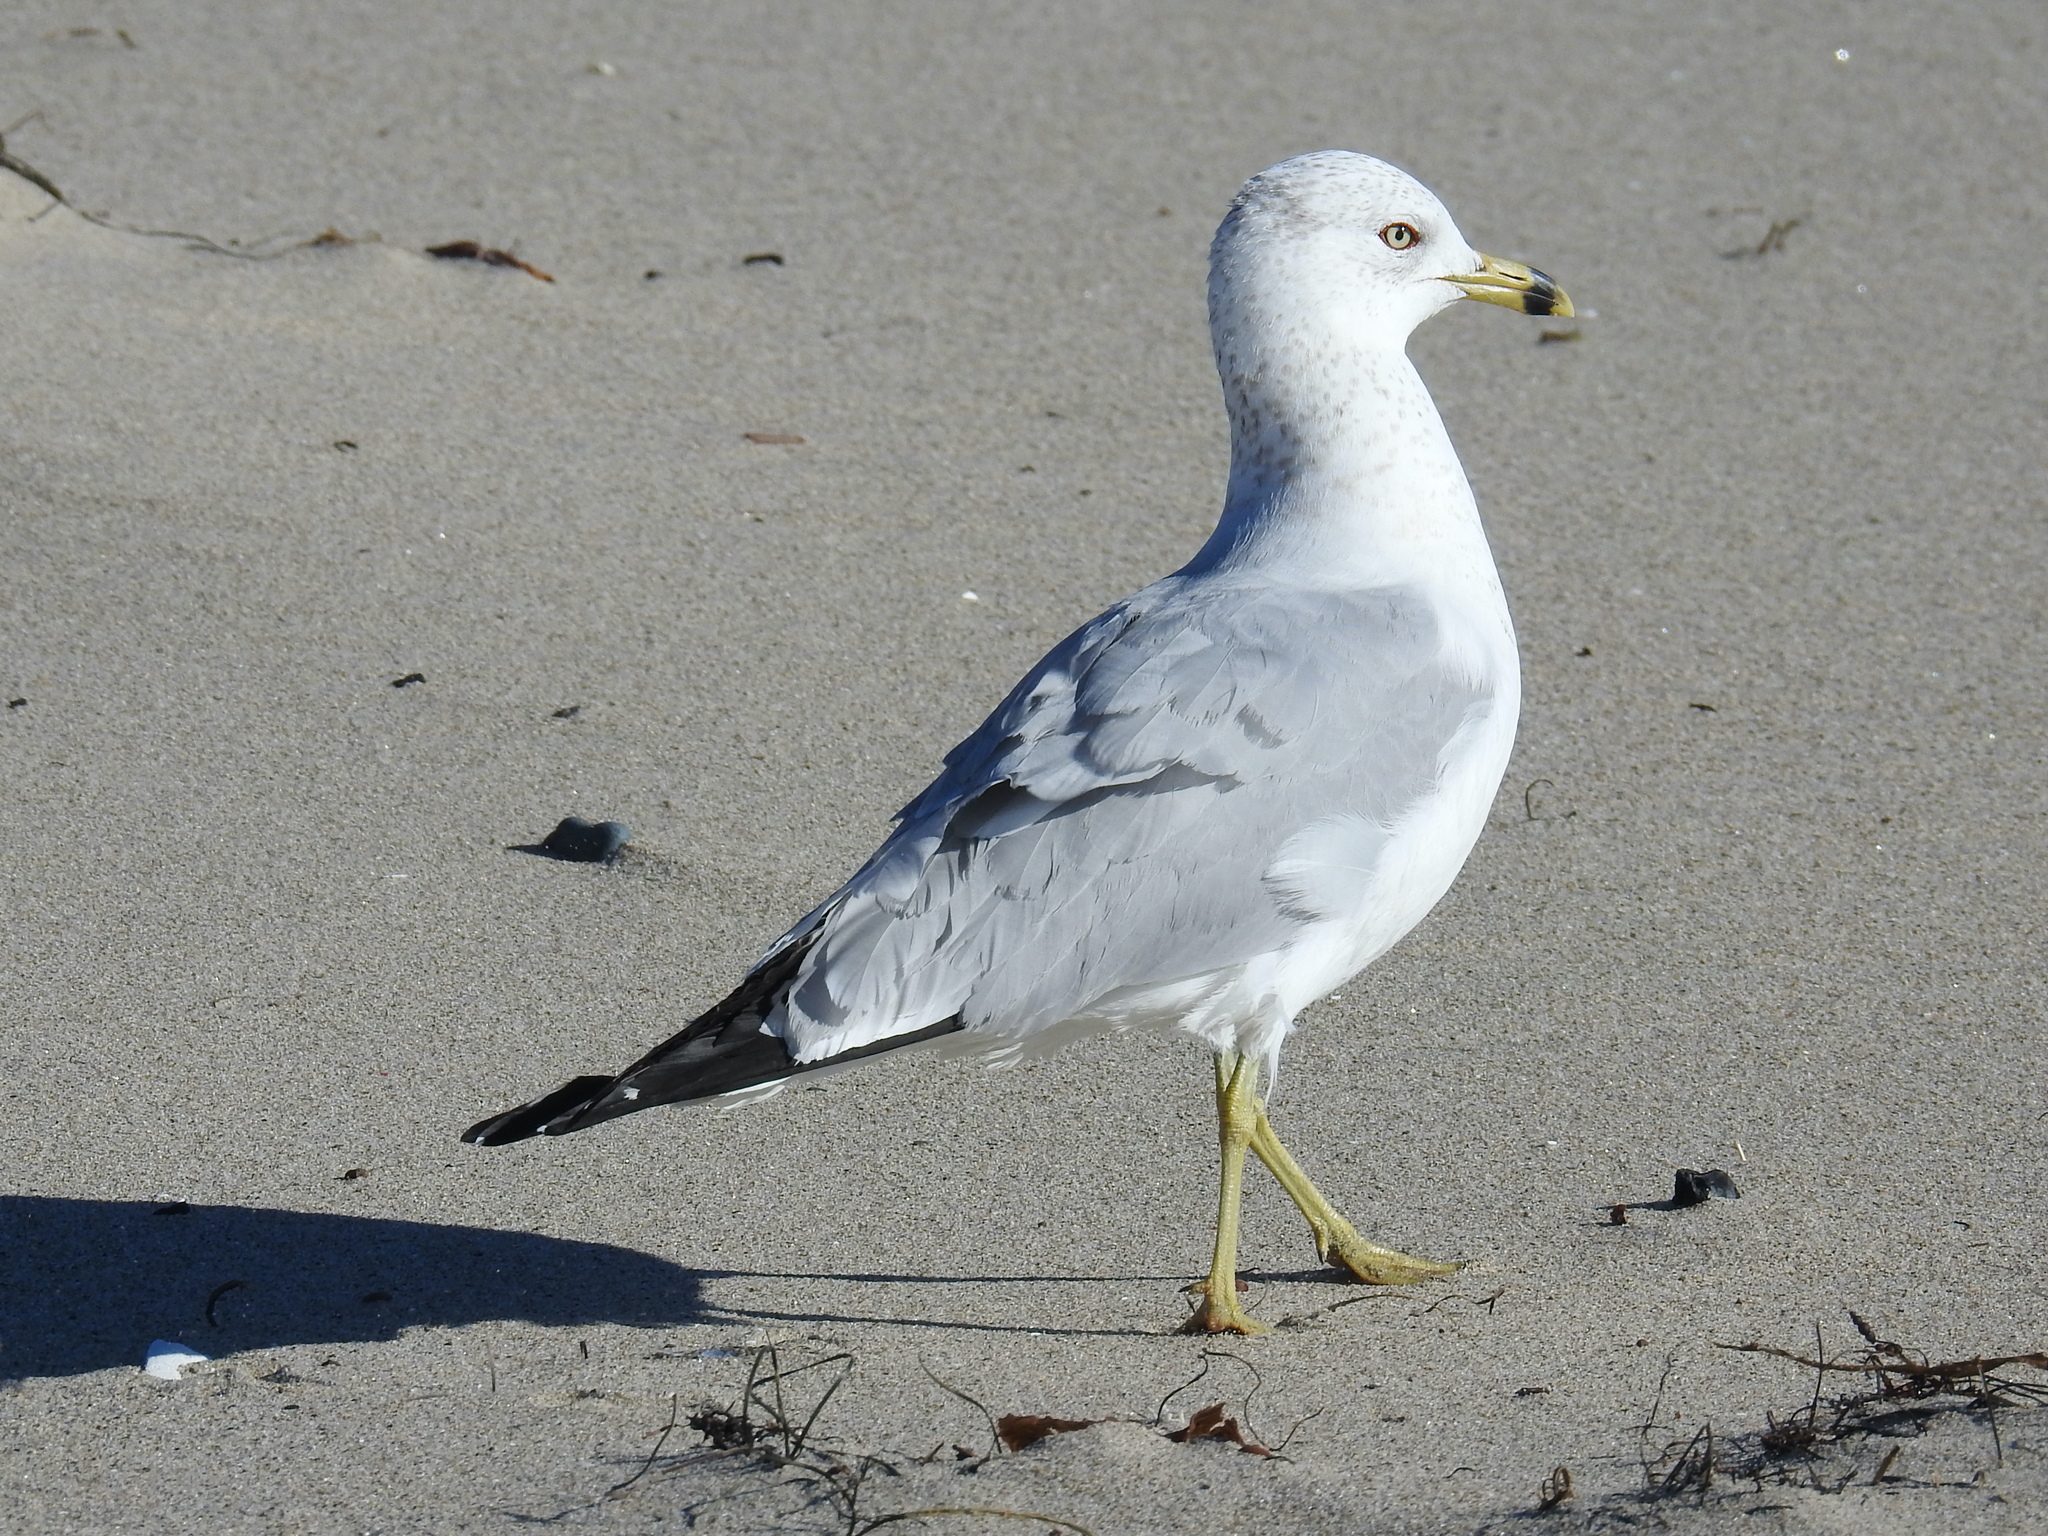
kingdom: Animalia
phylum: Chordata
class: Aves
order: Charadriiformes
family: Laridae
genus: Larus
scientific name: Larus delawarensis
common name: Ring-billed gull
